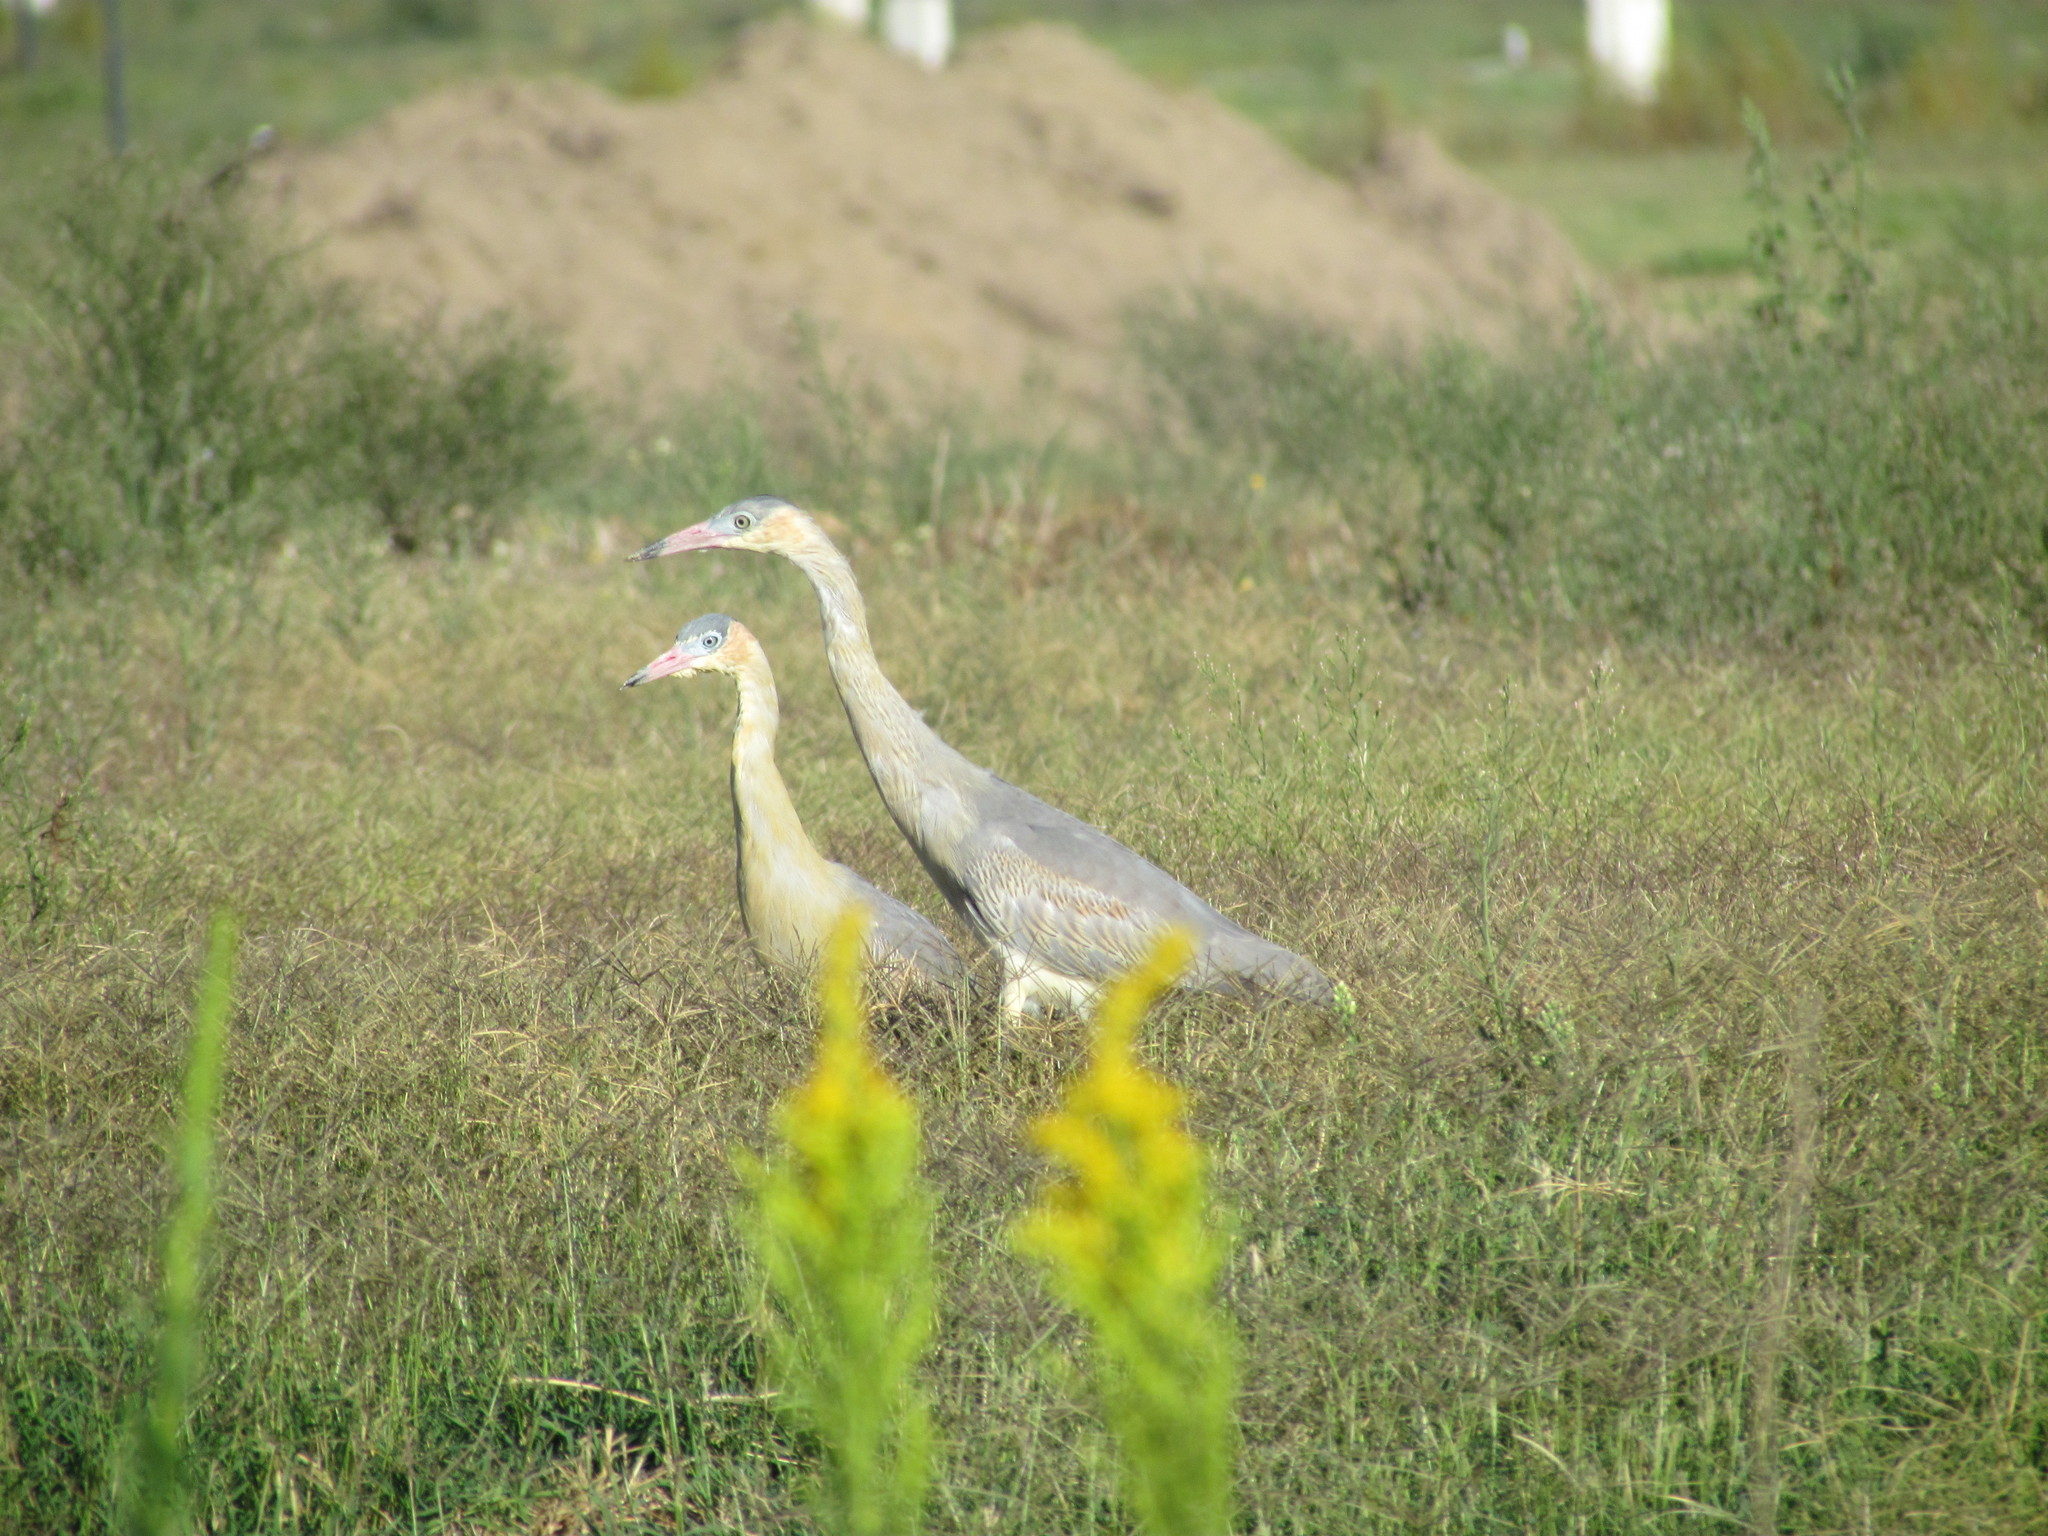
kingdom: Animalia
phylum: Chordata
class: Aves
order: Pelecaniformes
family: Ardeidae
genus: Syrigma
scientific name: Syrigma sibilatrix
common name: Whistling heron
